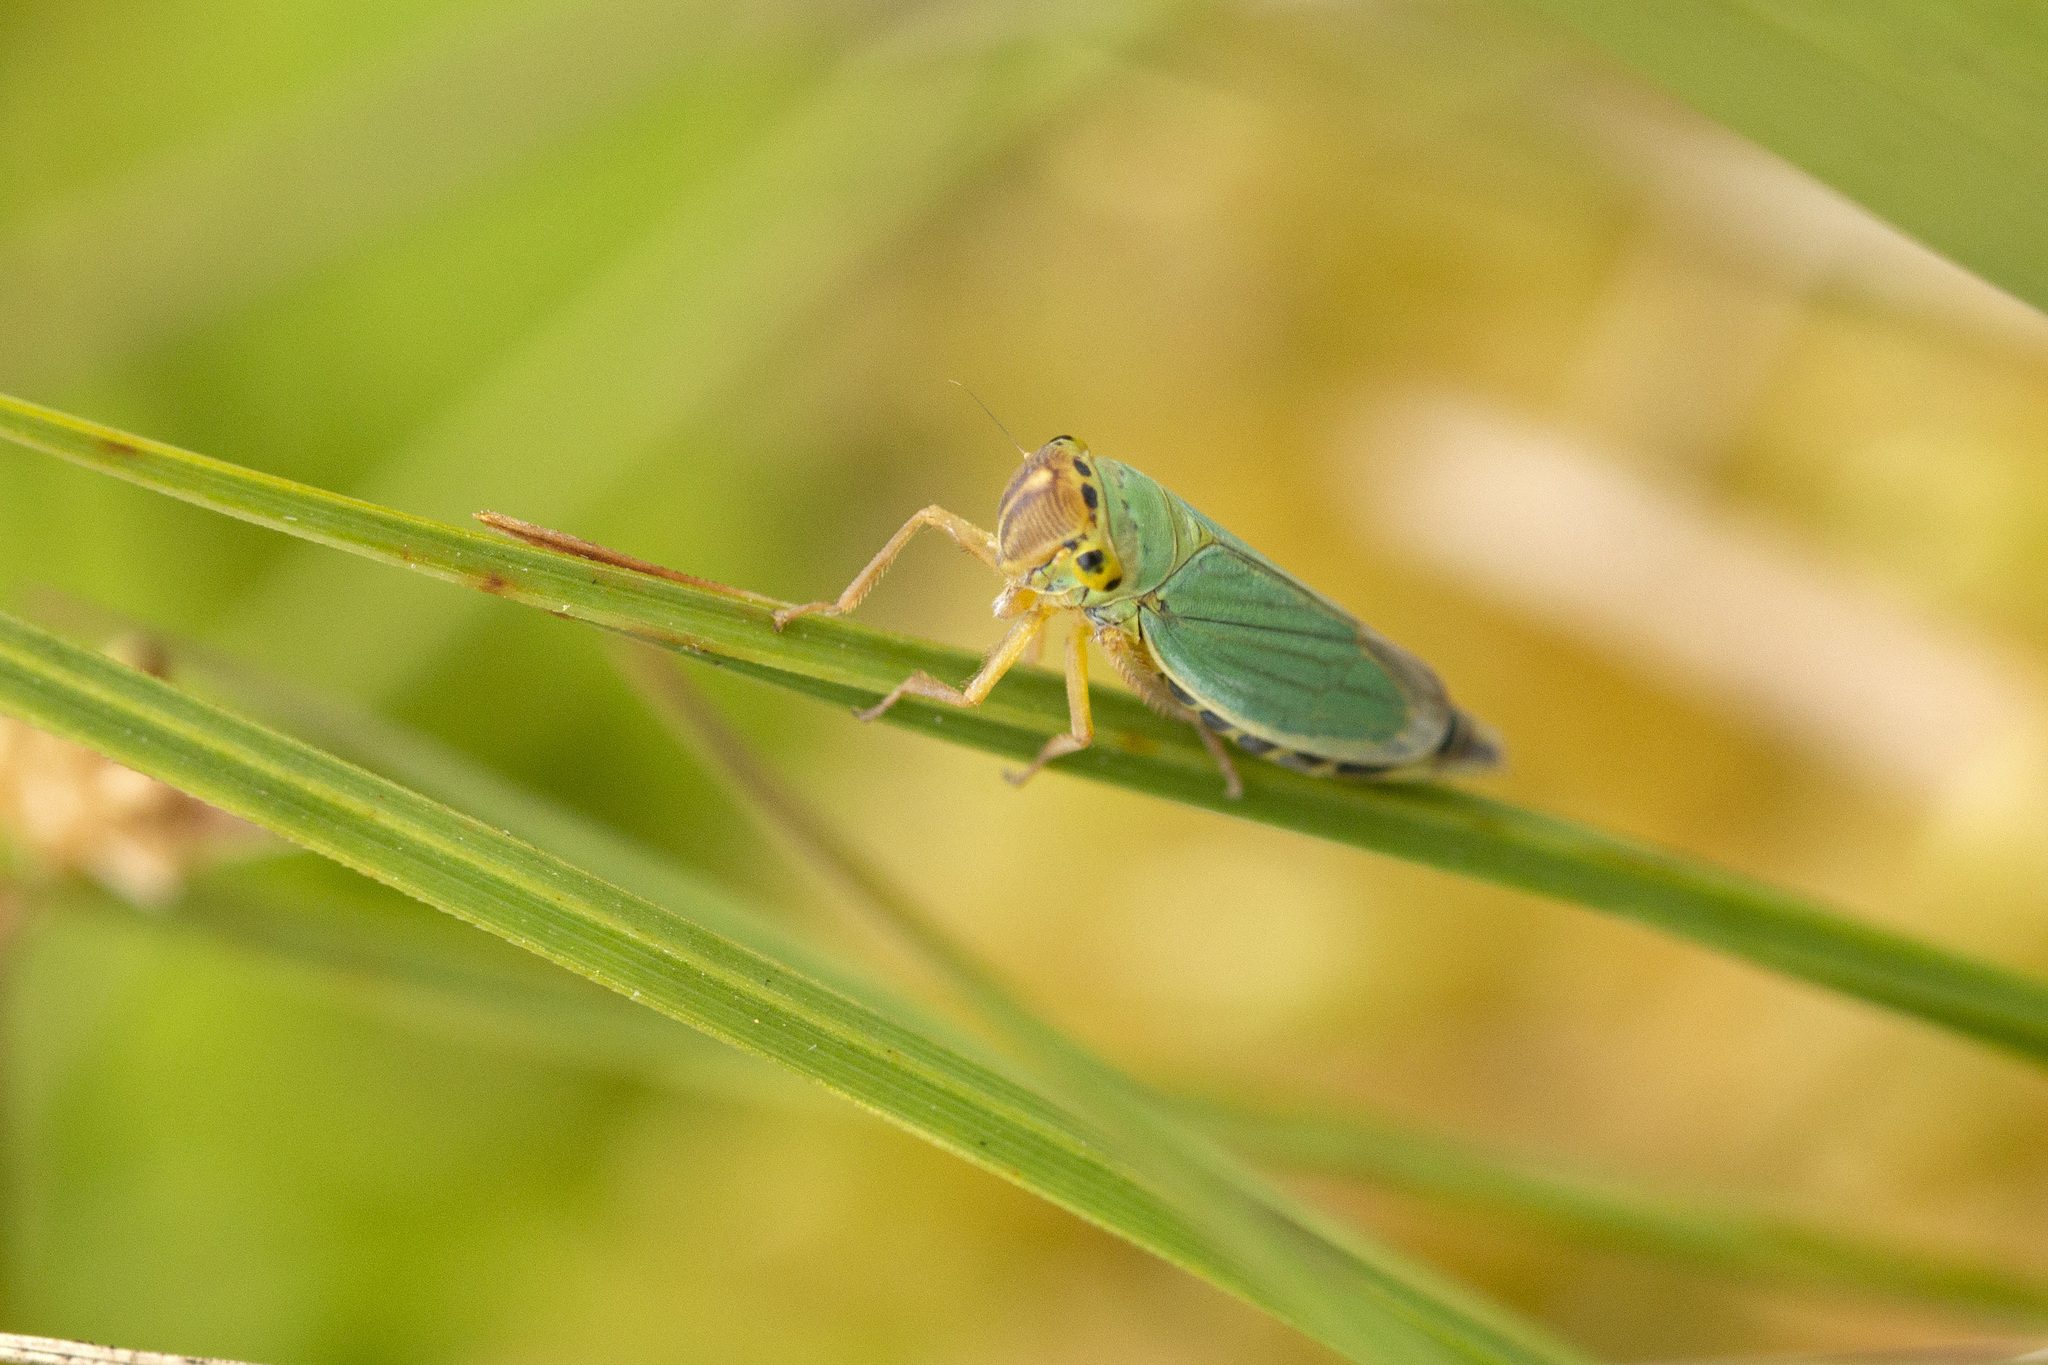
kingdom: Animalia
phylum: Arthropoda
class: Insecta
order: Hemiptera
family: Cicadellidae
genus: Cicadella
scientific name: Cicadella viridis
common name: Leafhopper
